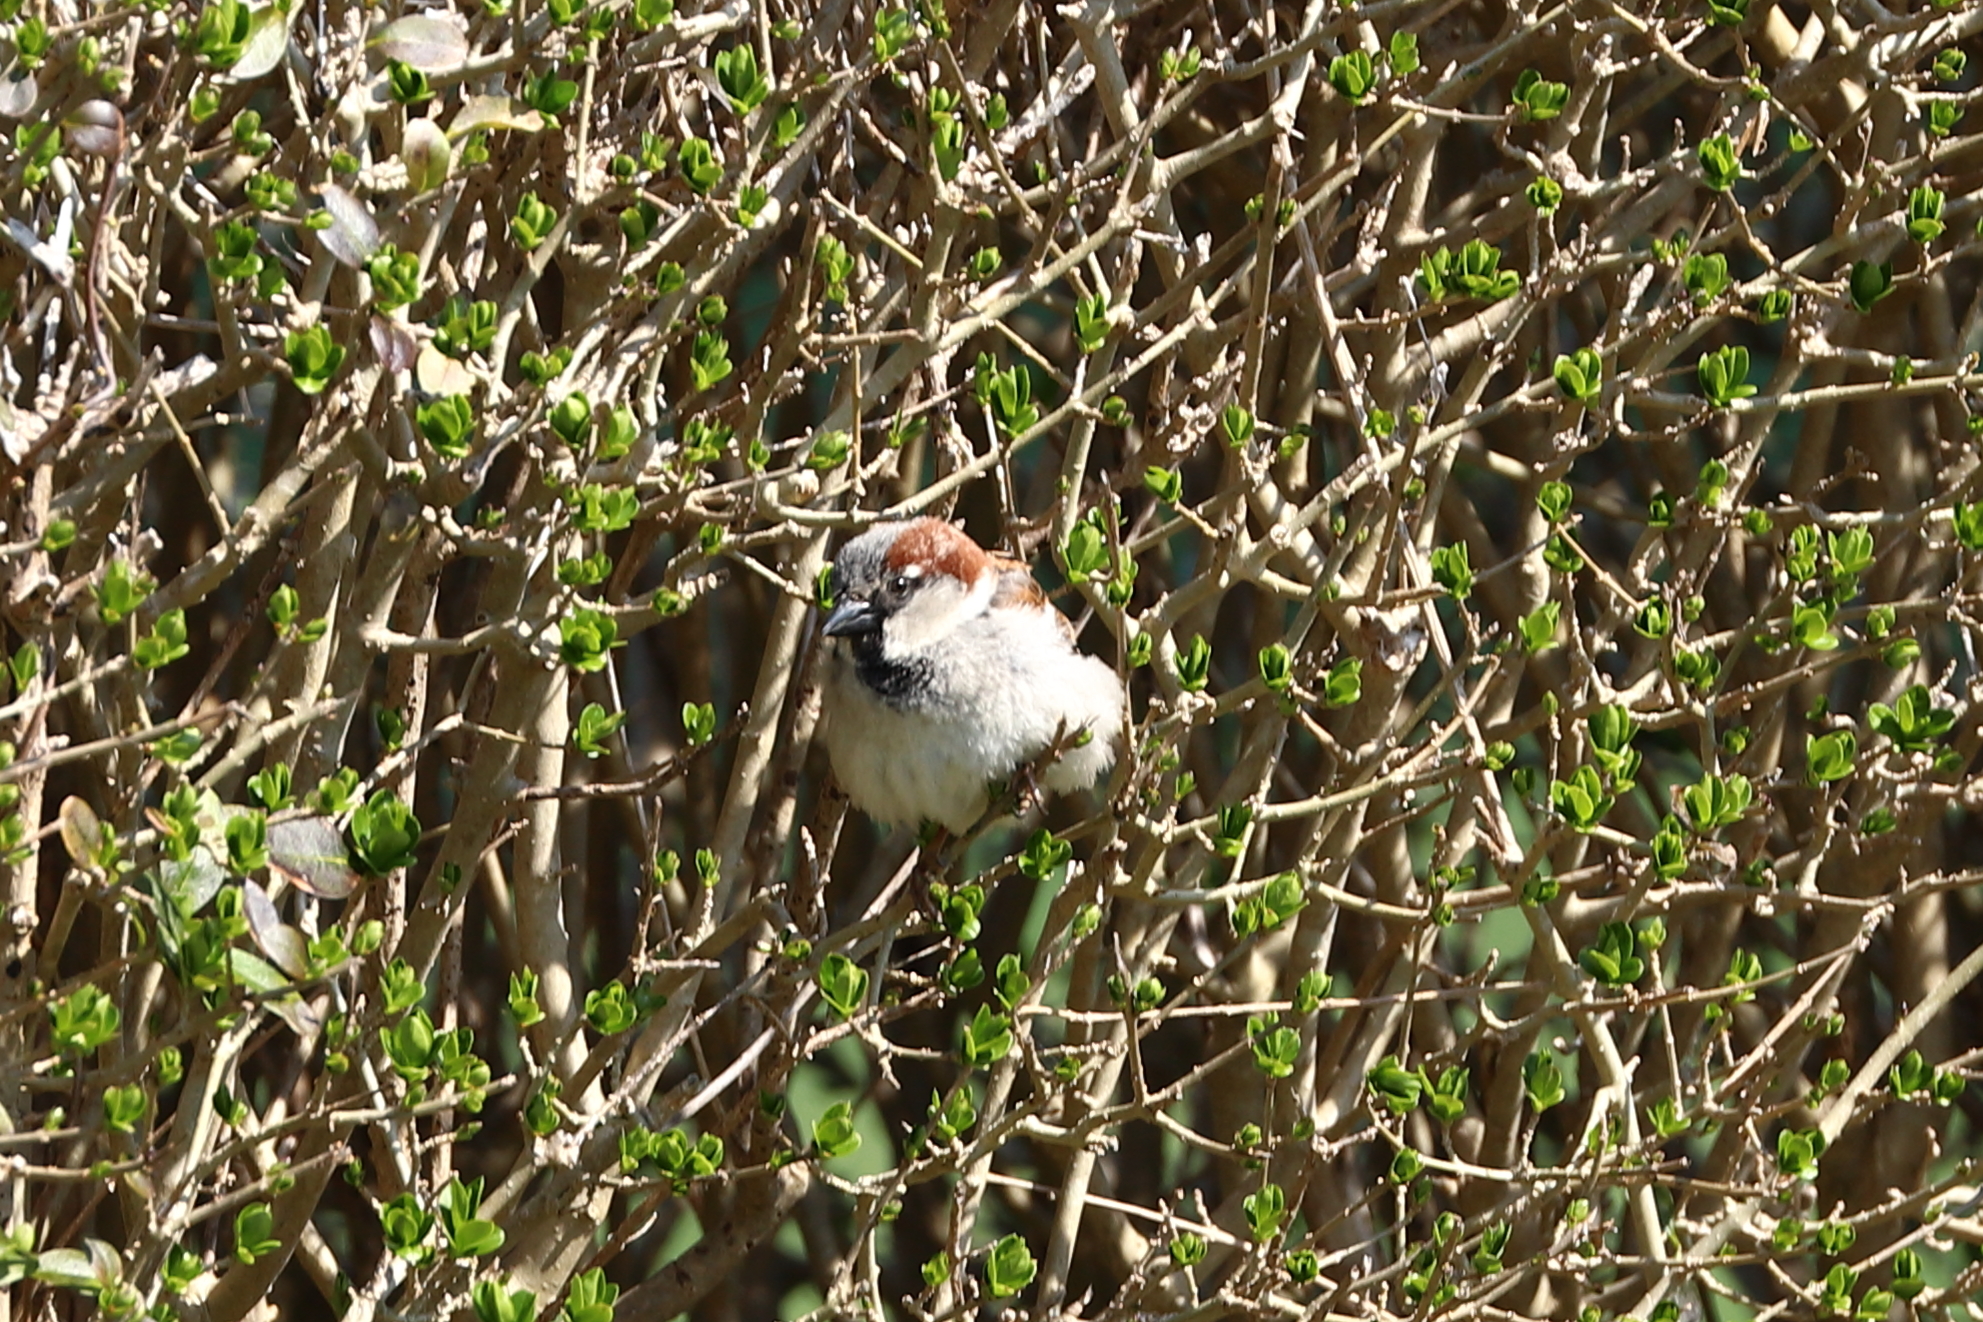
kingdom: Animalia
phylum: Chordata
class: Aves
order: Passeriformes
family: Passeridae
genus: Passer
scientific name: Passer domesticus
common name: House sparrow
